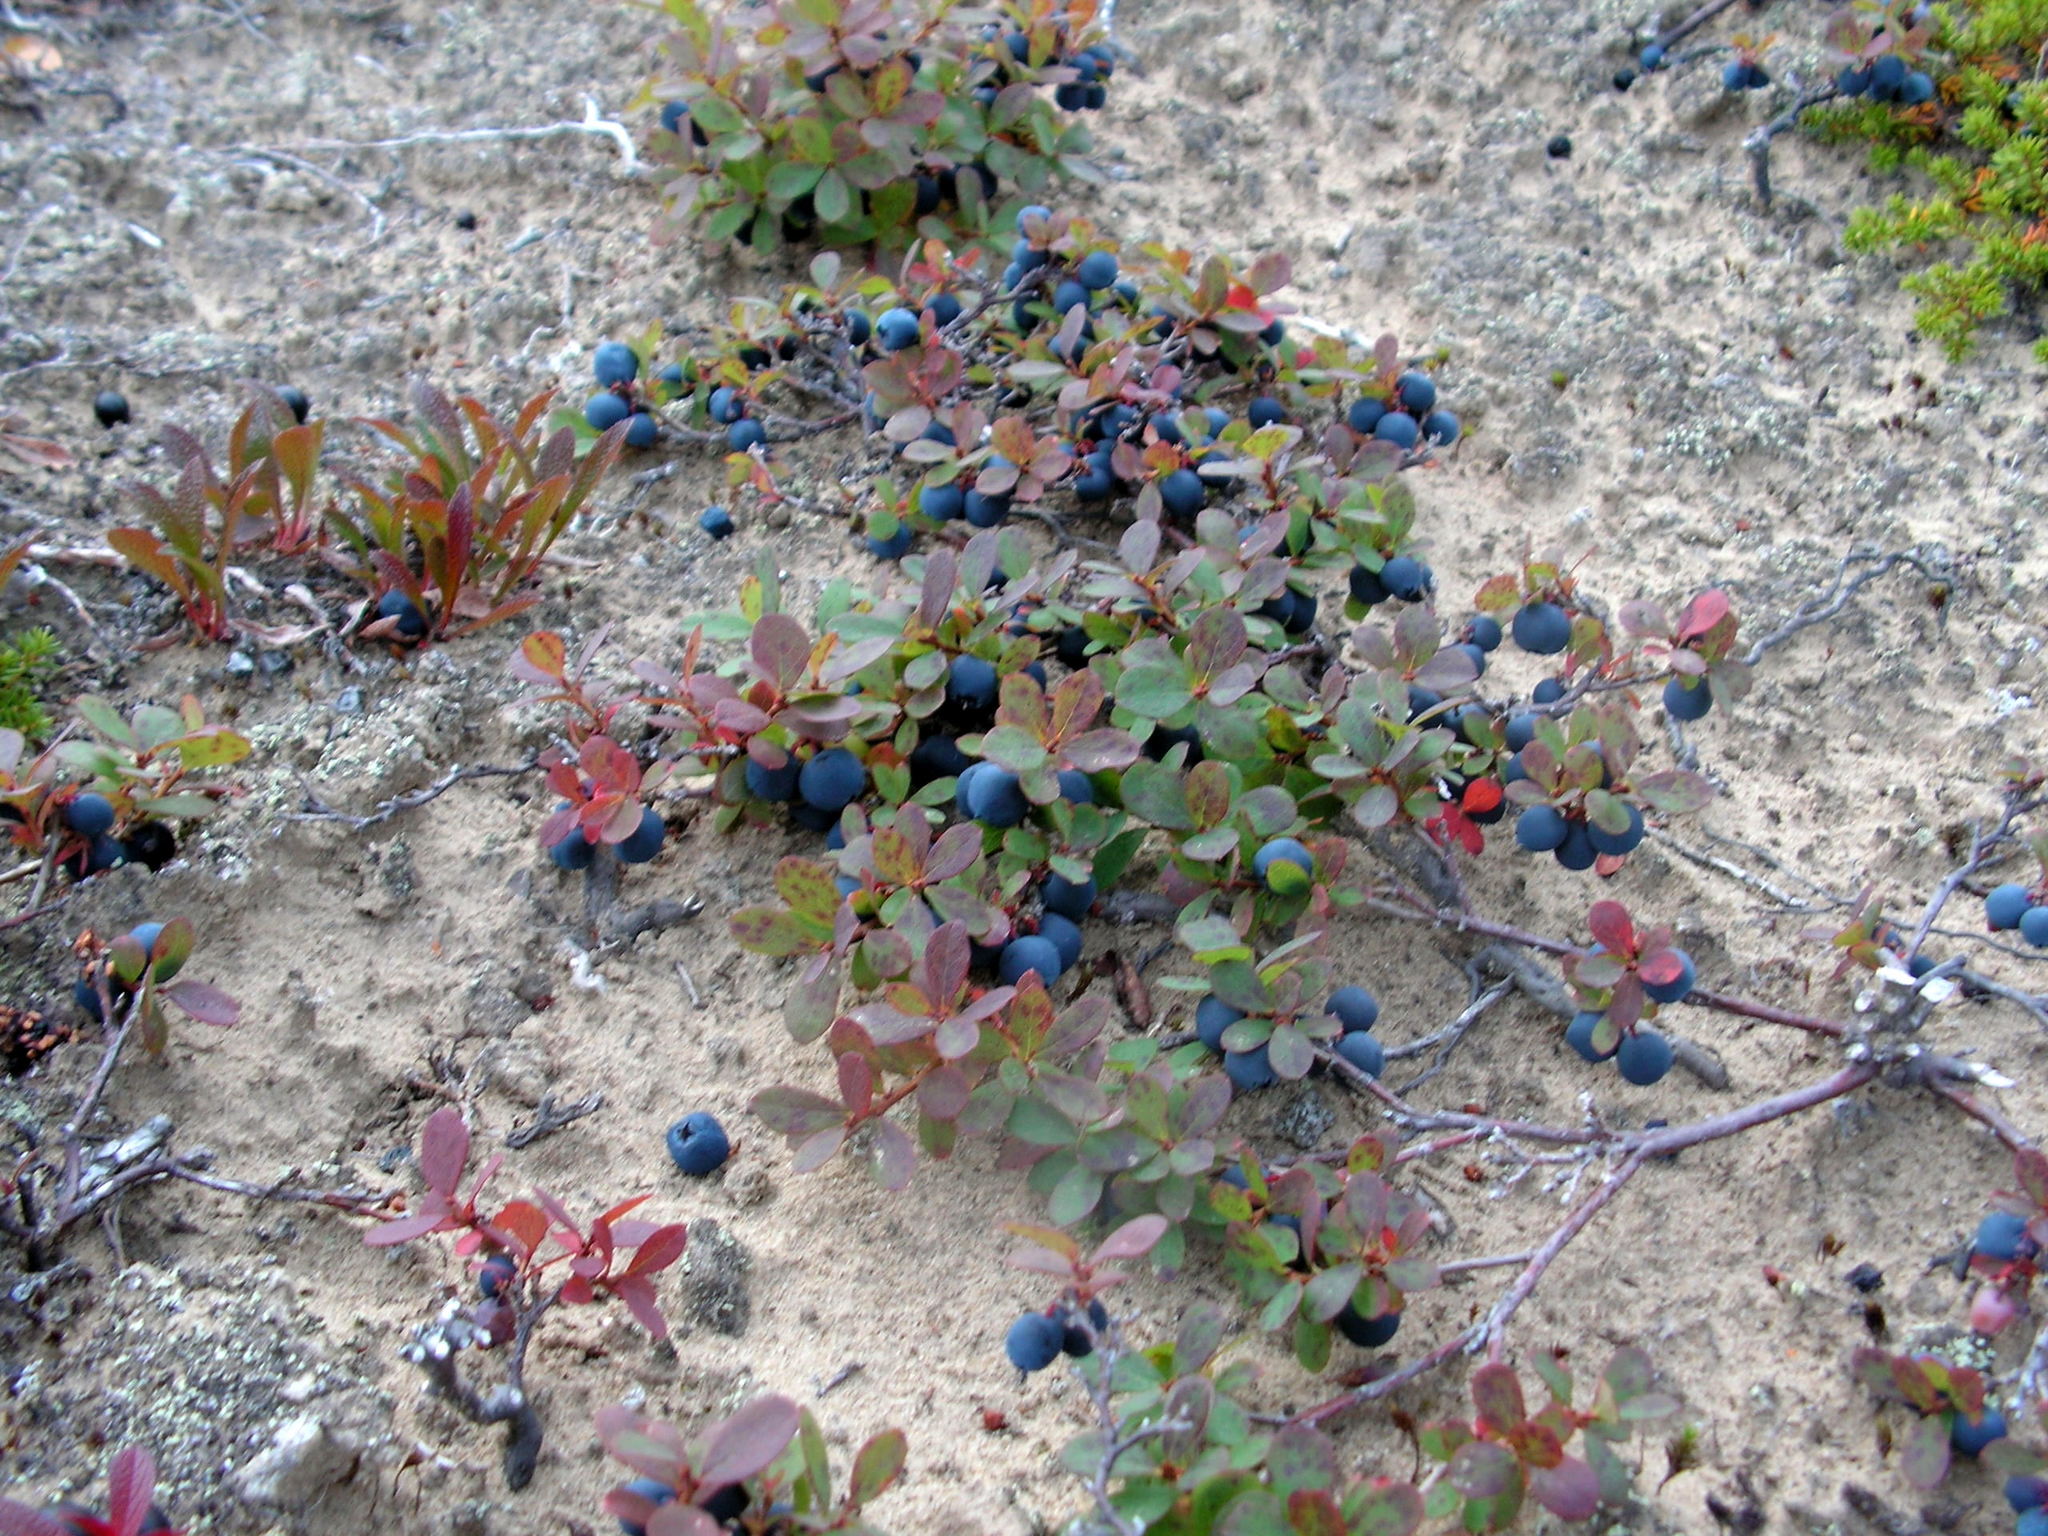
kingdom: Plantae
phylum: Tracheophyta
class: Magnoliopsida
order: Ericales
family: Ericaceae
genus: Vaccinium
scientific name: Vaccinium uliginosum
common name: Bog bilberry
